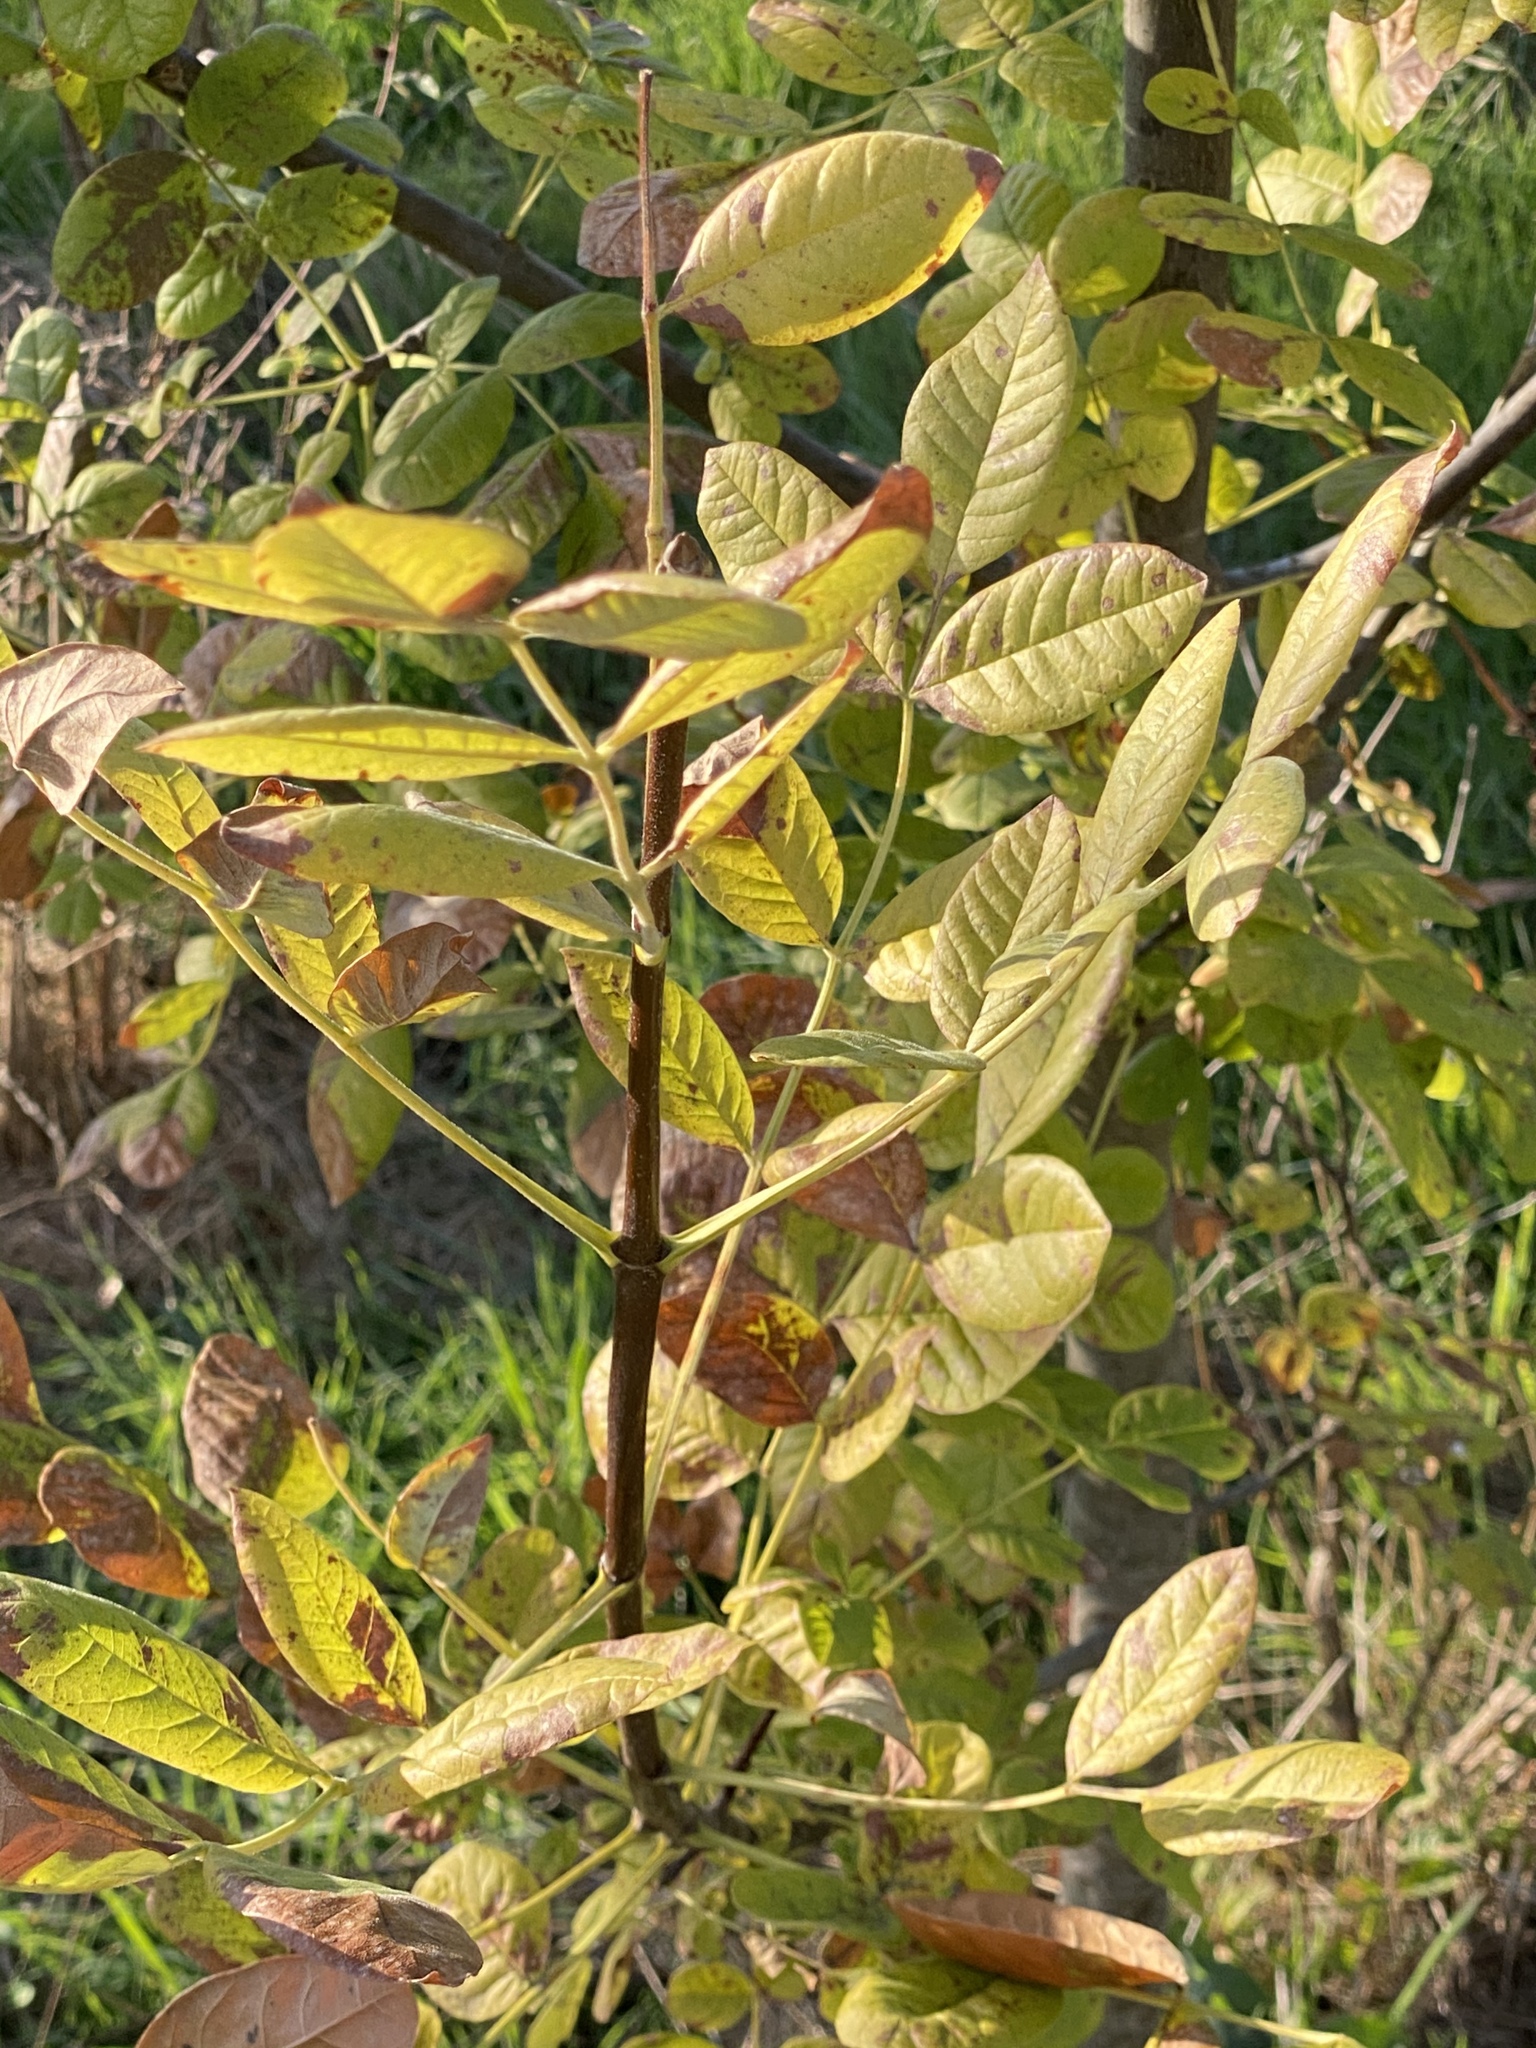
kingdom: Plantae
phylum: Tracheophyta
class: Magnoliopsida
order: Lamiales
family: Oleaceae
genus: Fraxinus
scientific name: Fraxinus latifolia
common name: Oregon ash
